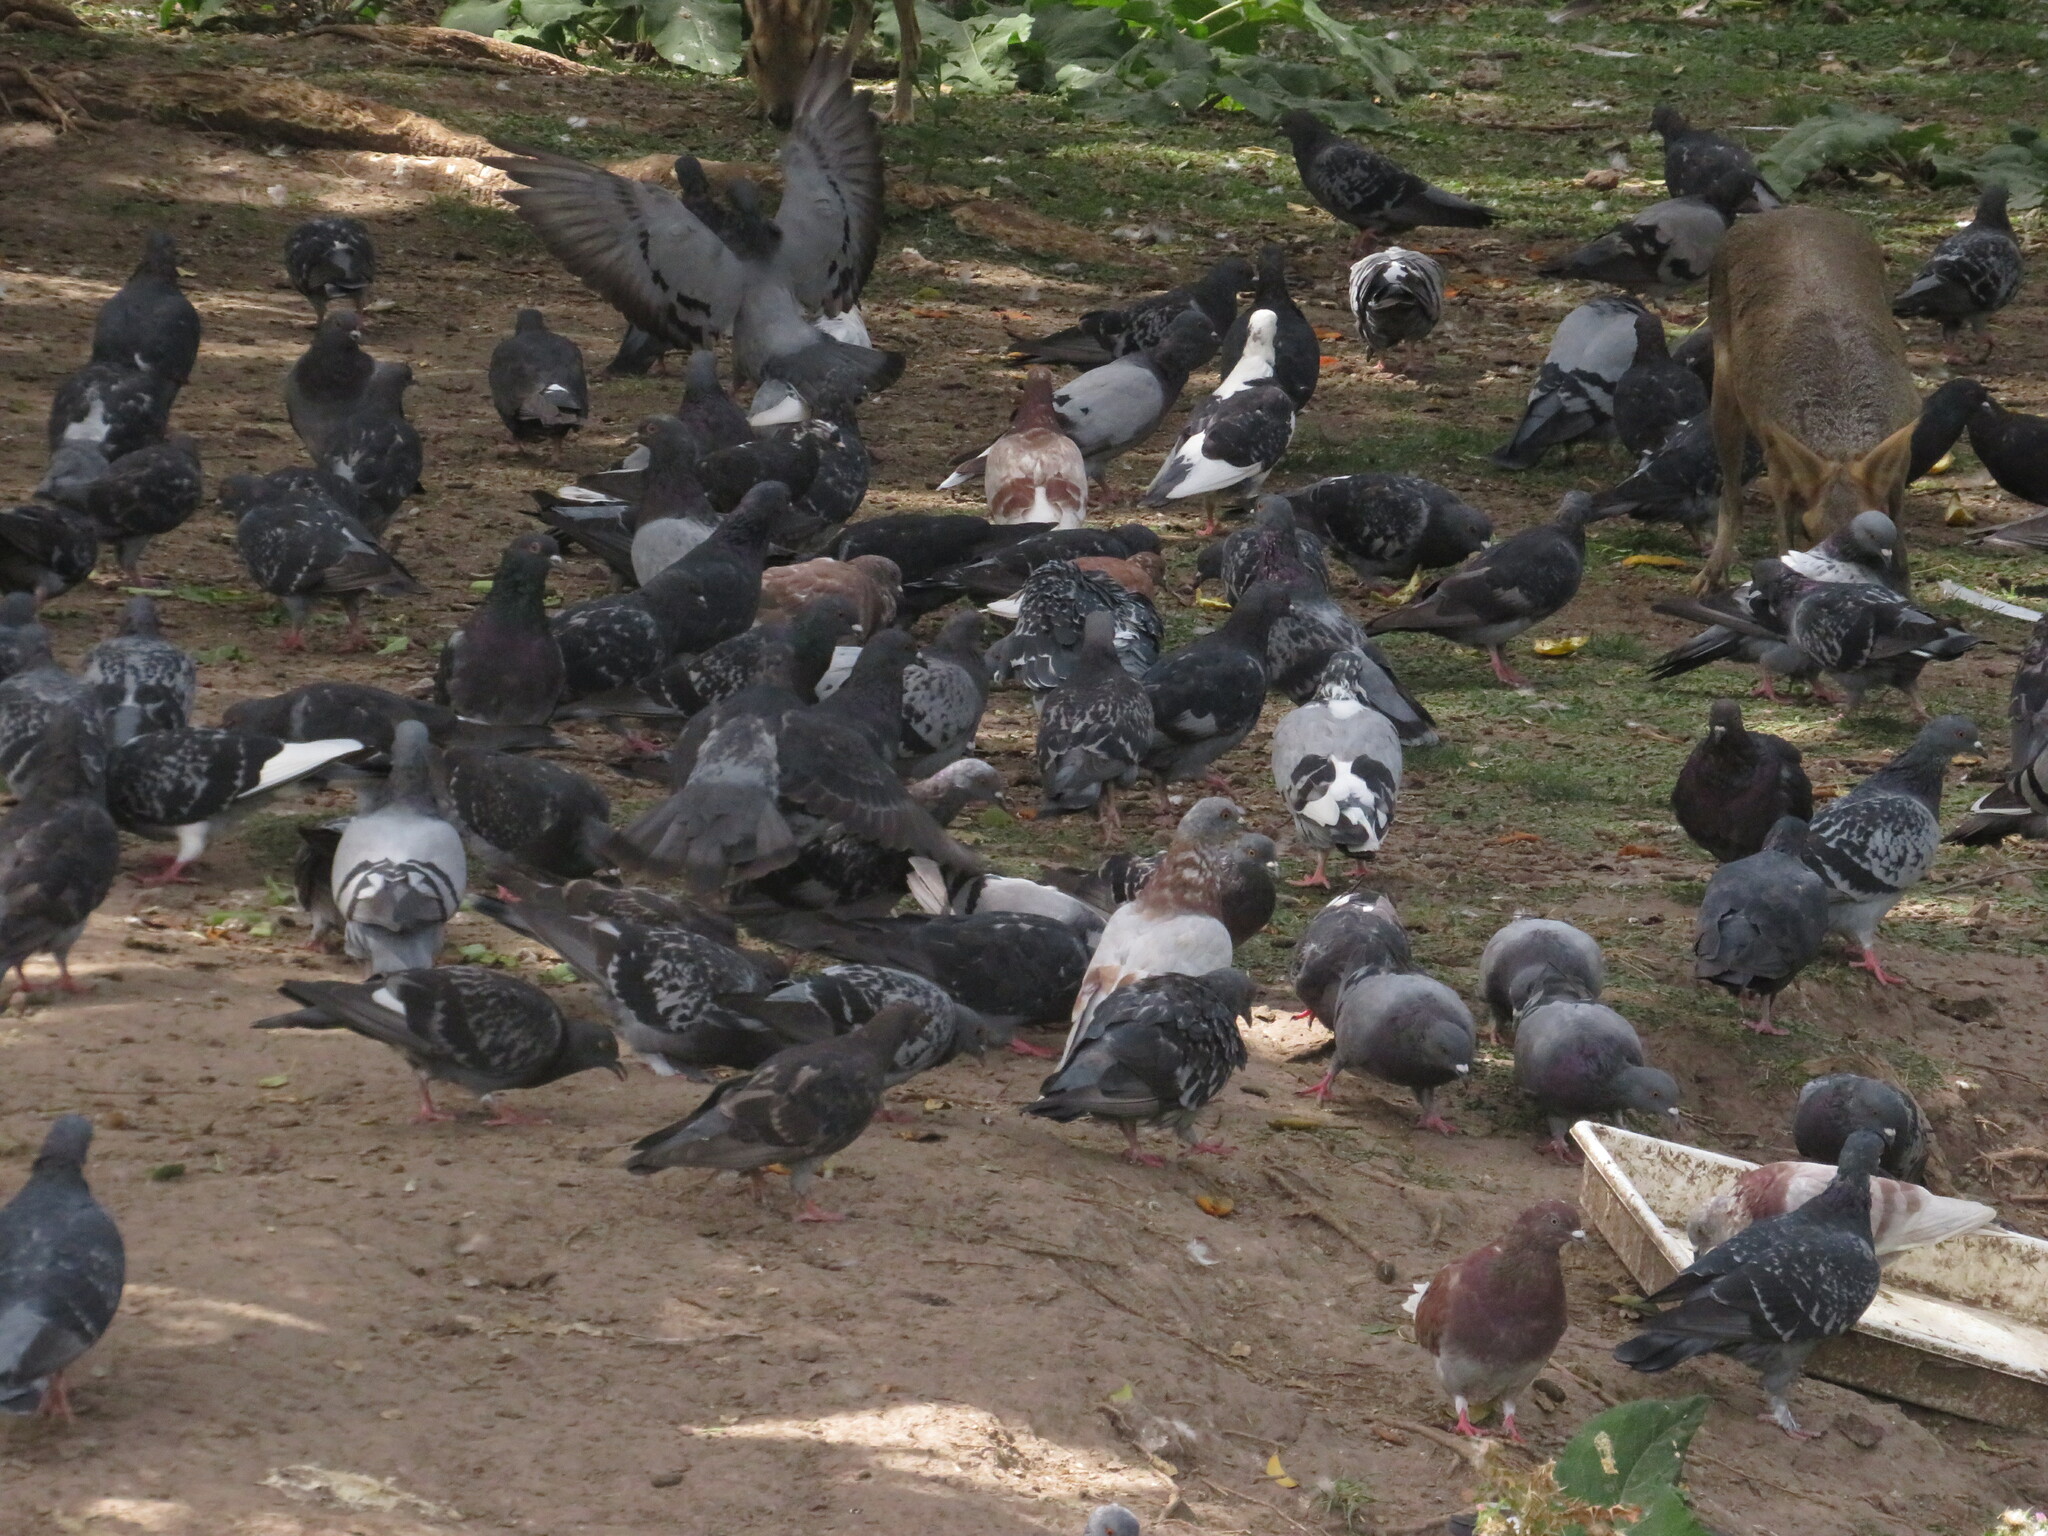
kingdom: Animalia
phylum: Chordata
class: Aves
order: Columbiformes
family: Columbidae
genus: Columba
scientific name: Columba livia
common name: Rock pigeon
